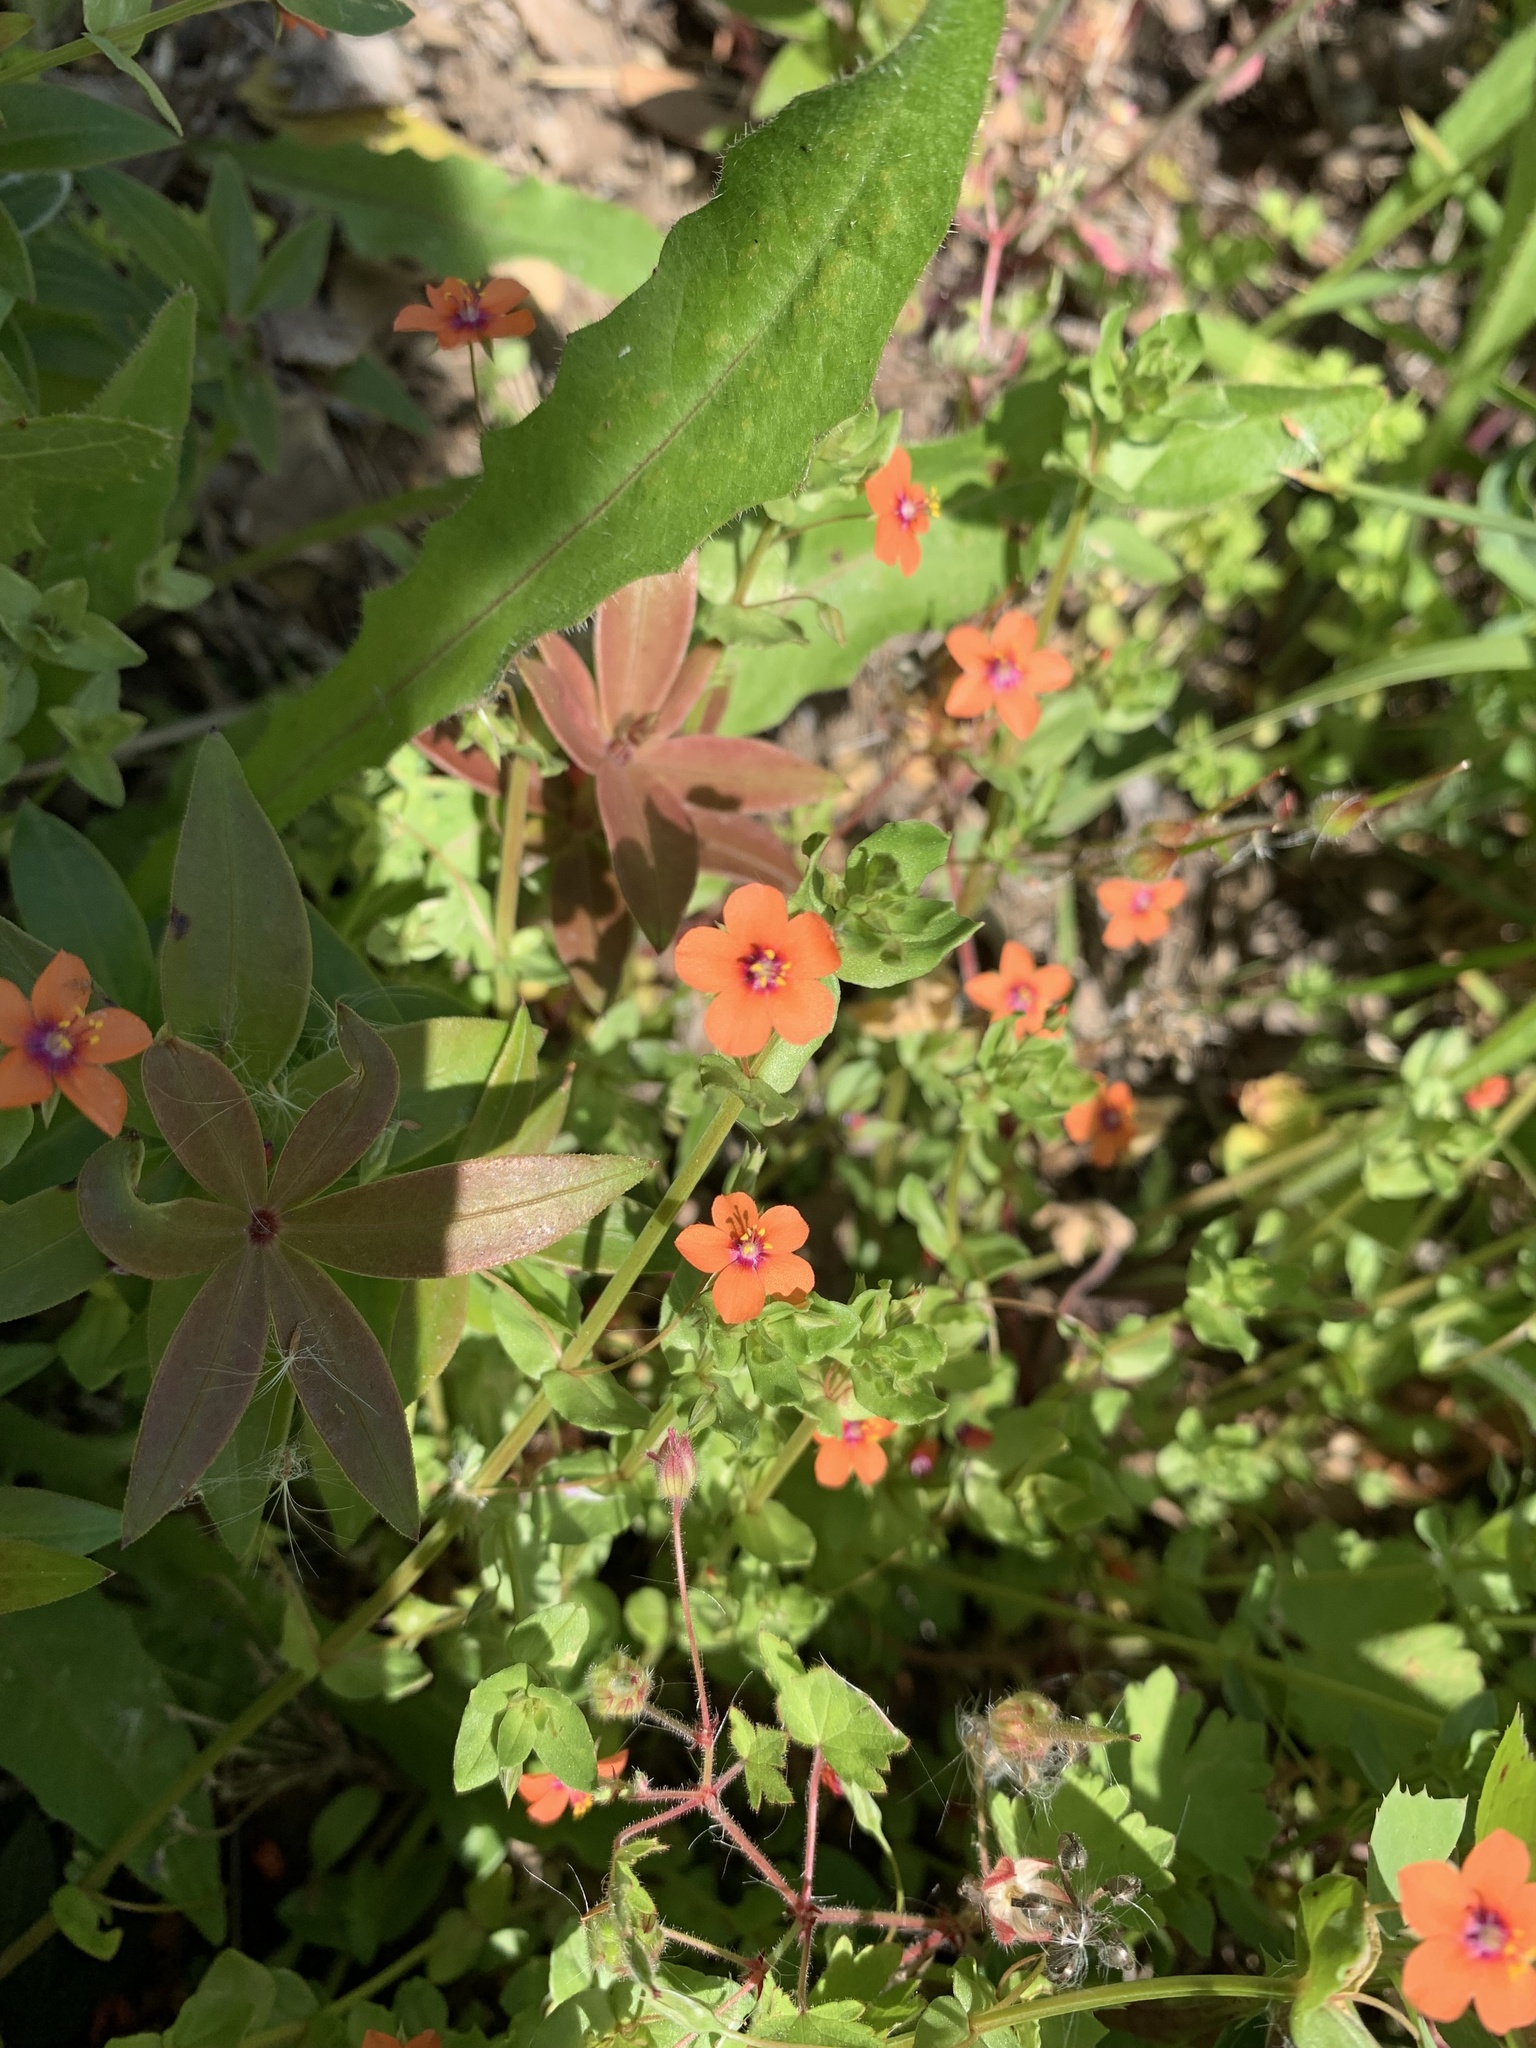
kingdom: Plantae
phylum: Tracheophyta
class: Magnoliopsida
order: Ericales
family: Primulaceae
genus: Lysimachia
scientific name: Lysimachia arvensis
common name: Scarlet pimpernel
